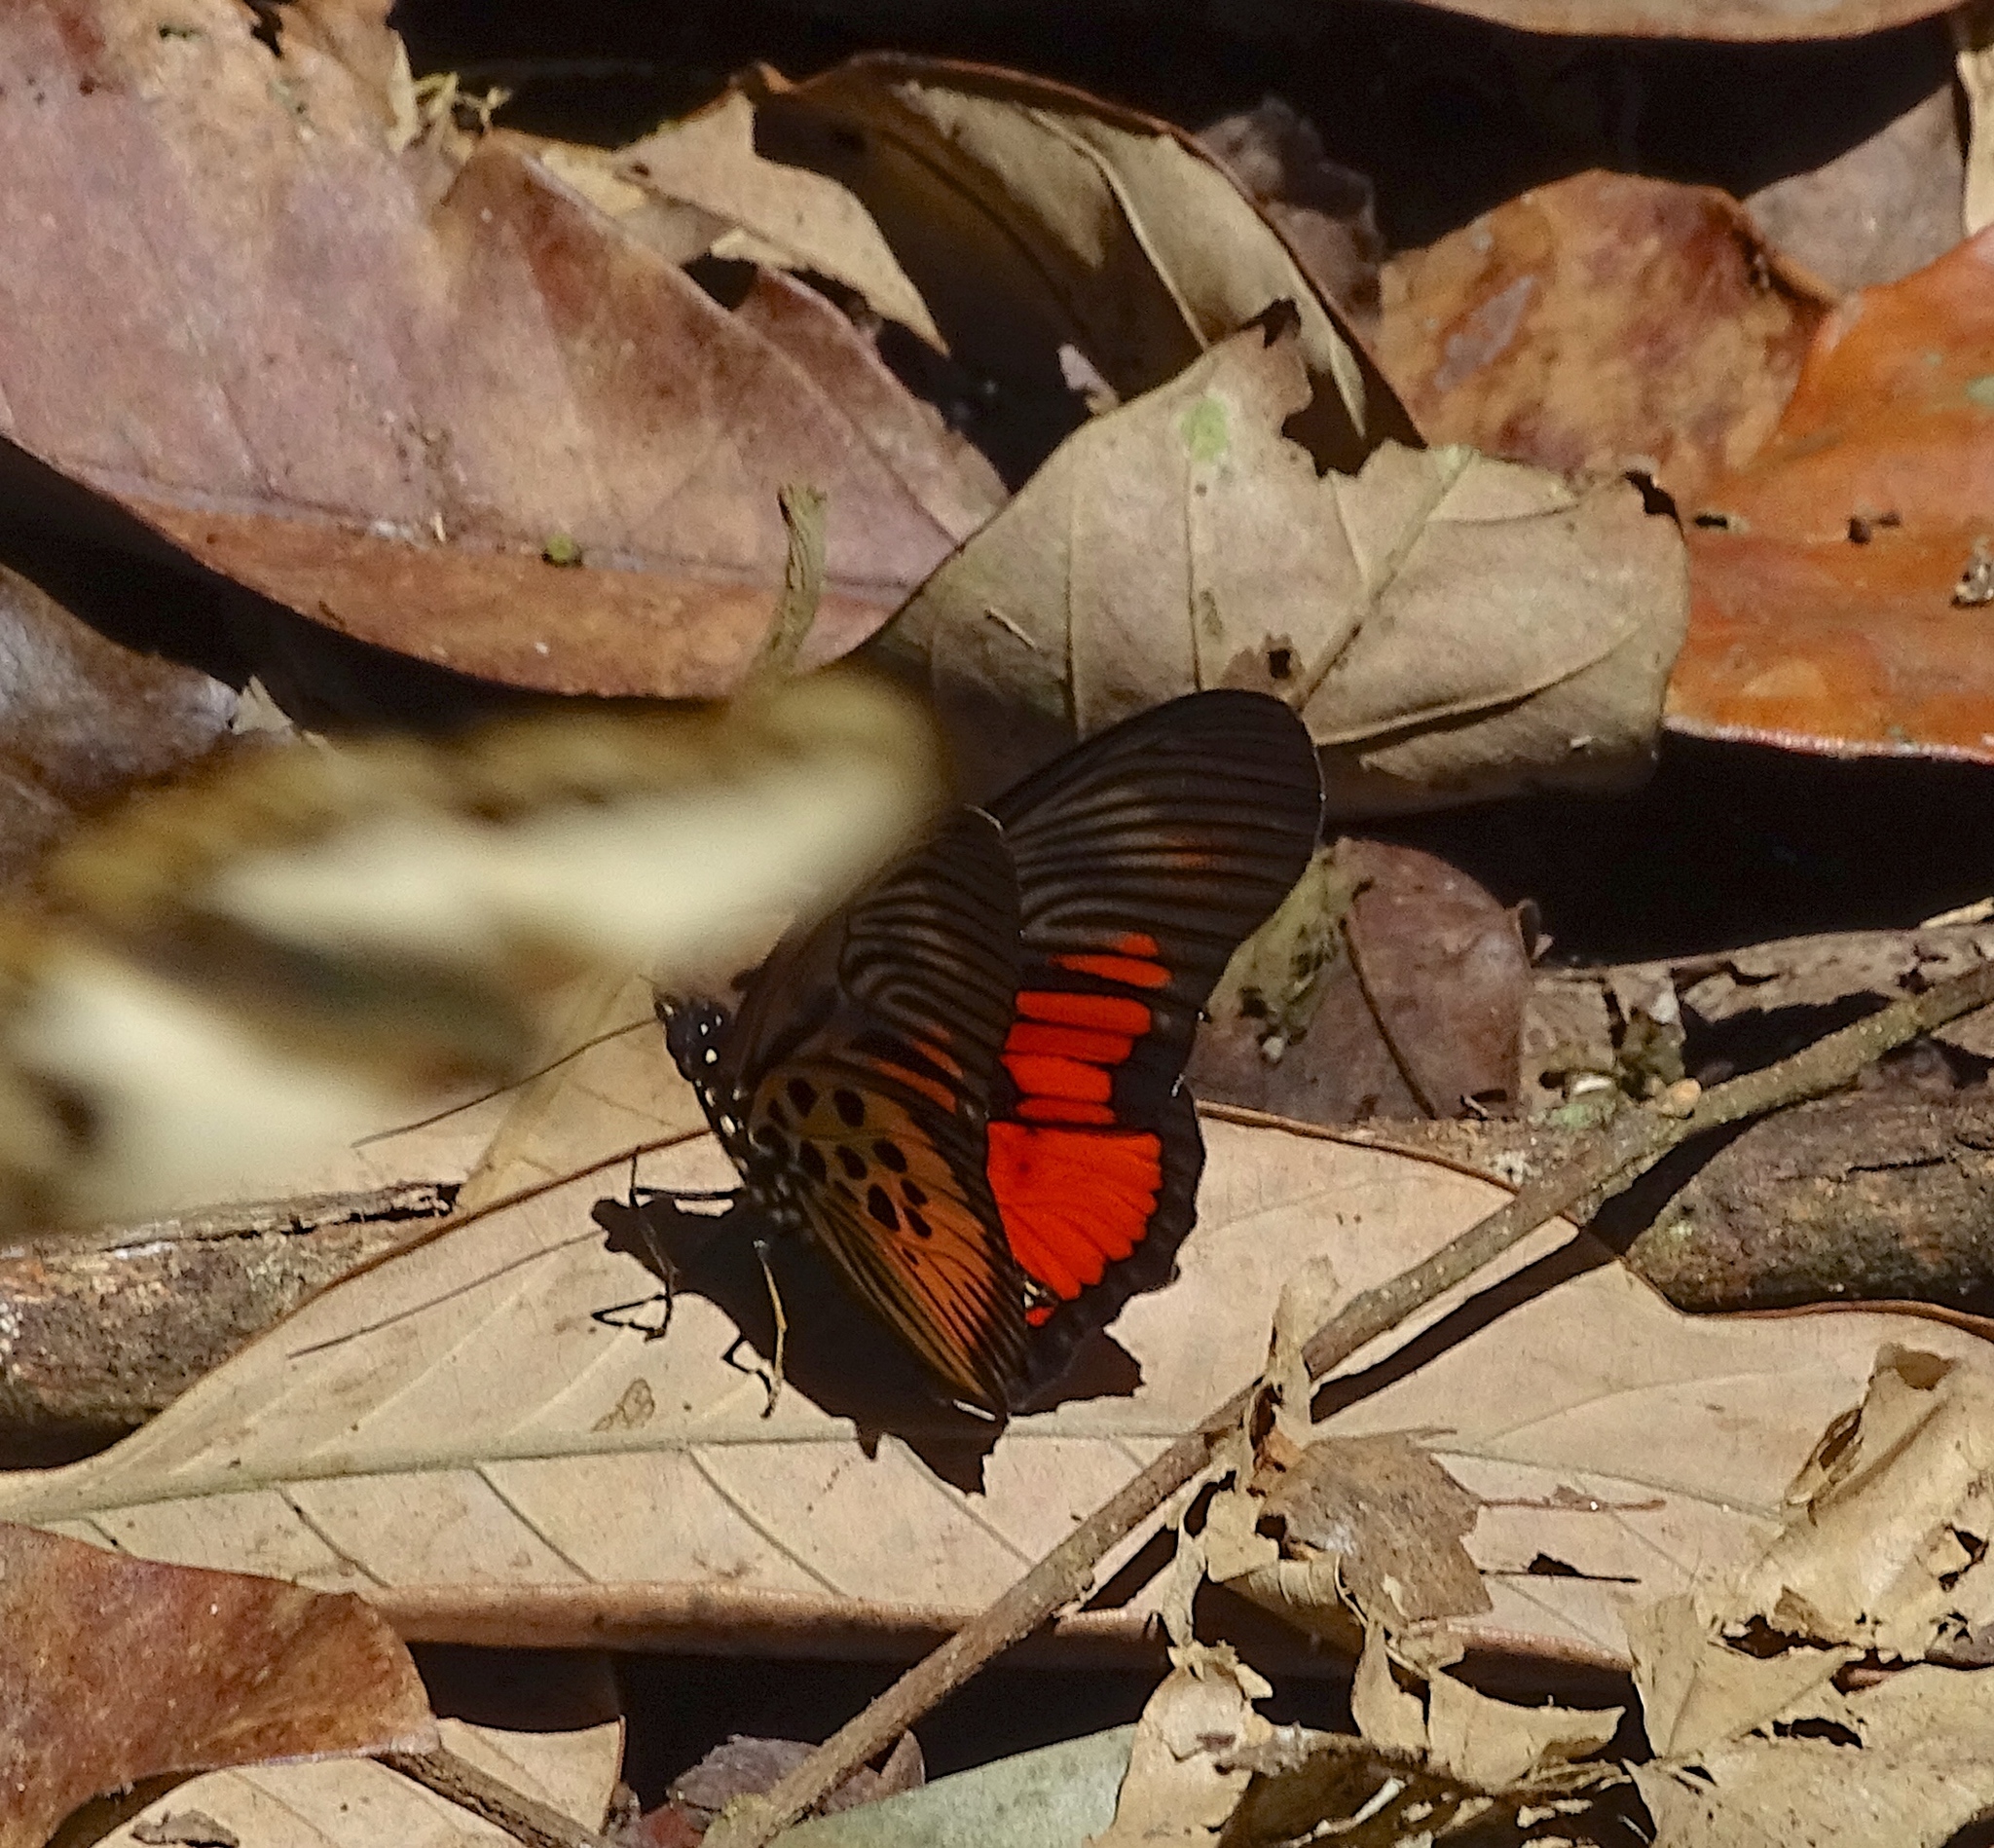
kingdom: Animalia
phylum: Arthropoda
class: Insecta
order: Lepidoptera
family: Nymphalidae
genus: Chloropoea
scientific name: Chloropoea clarkii
